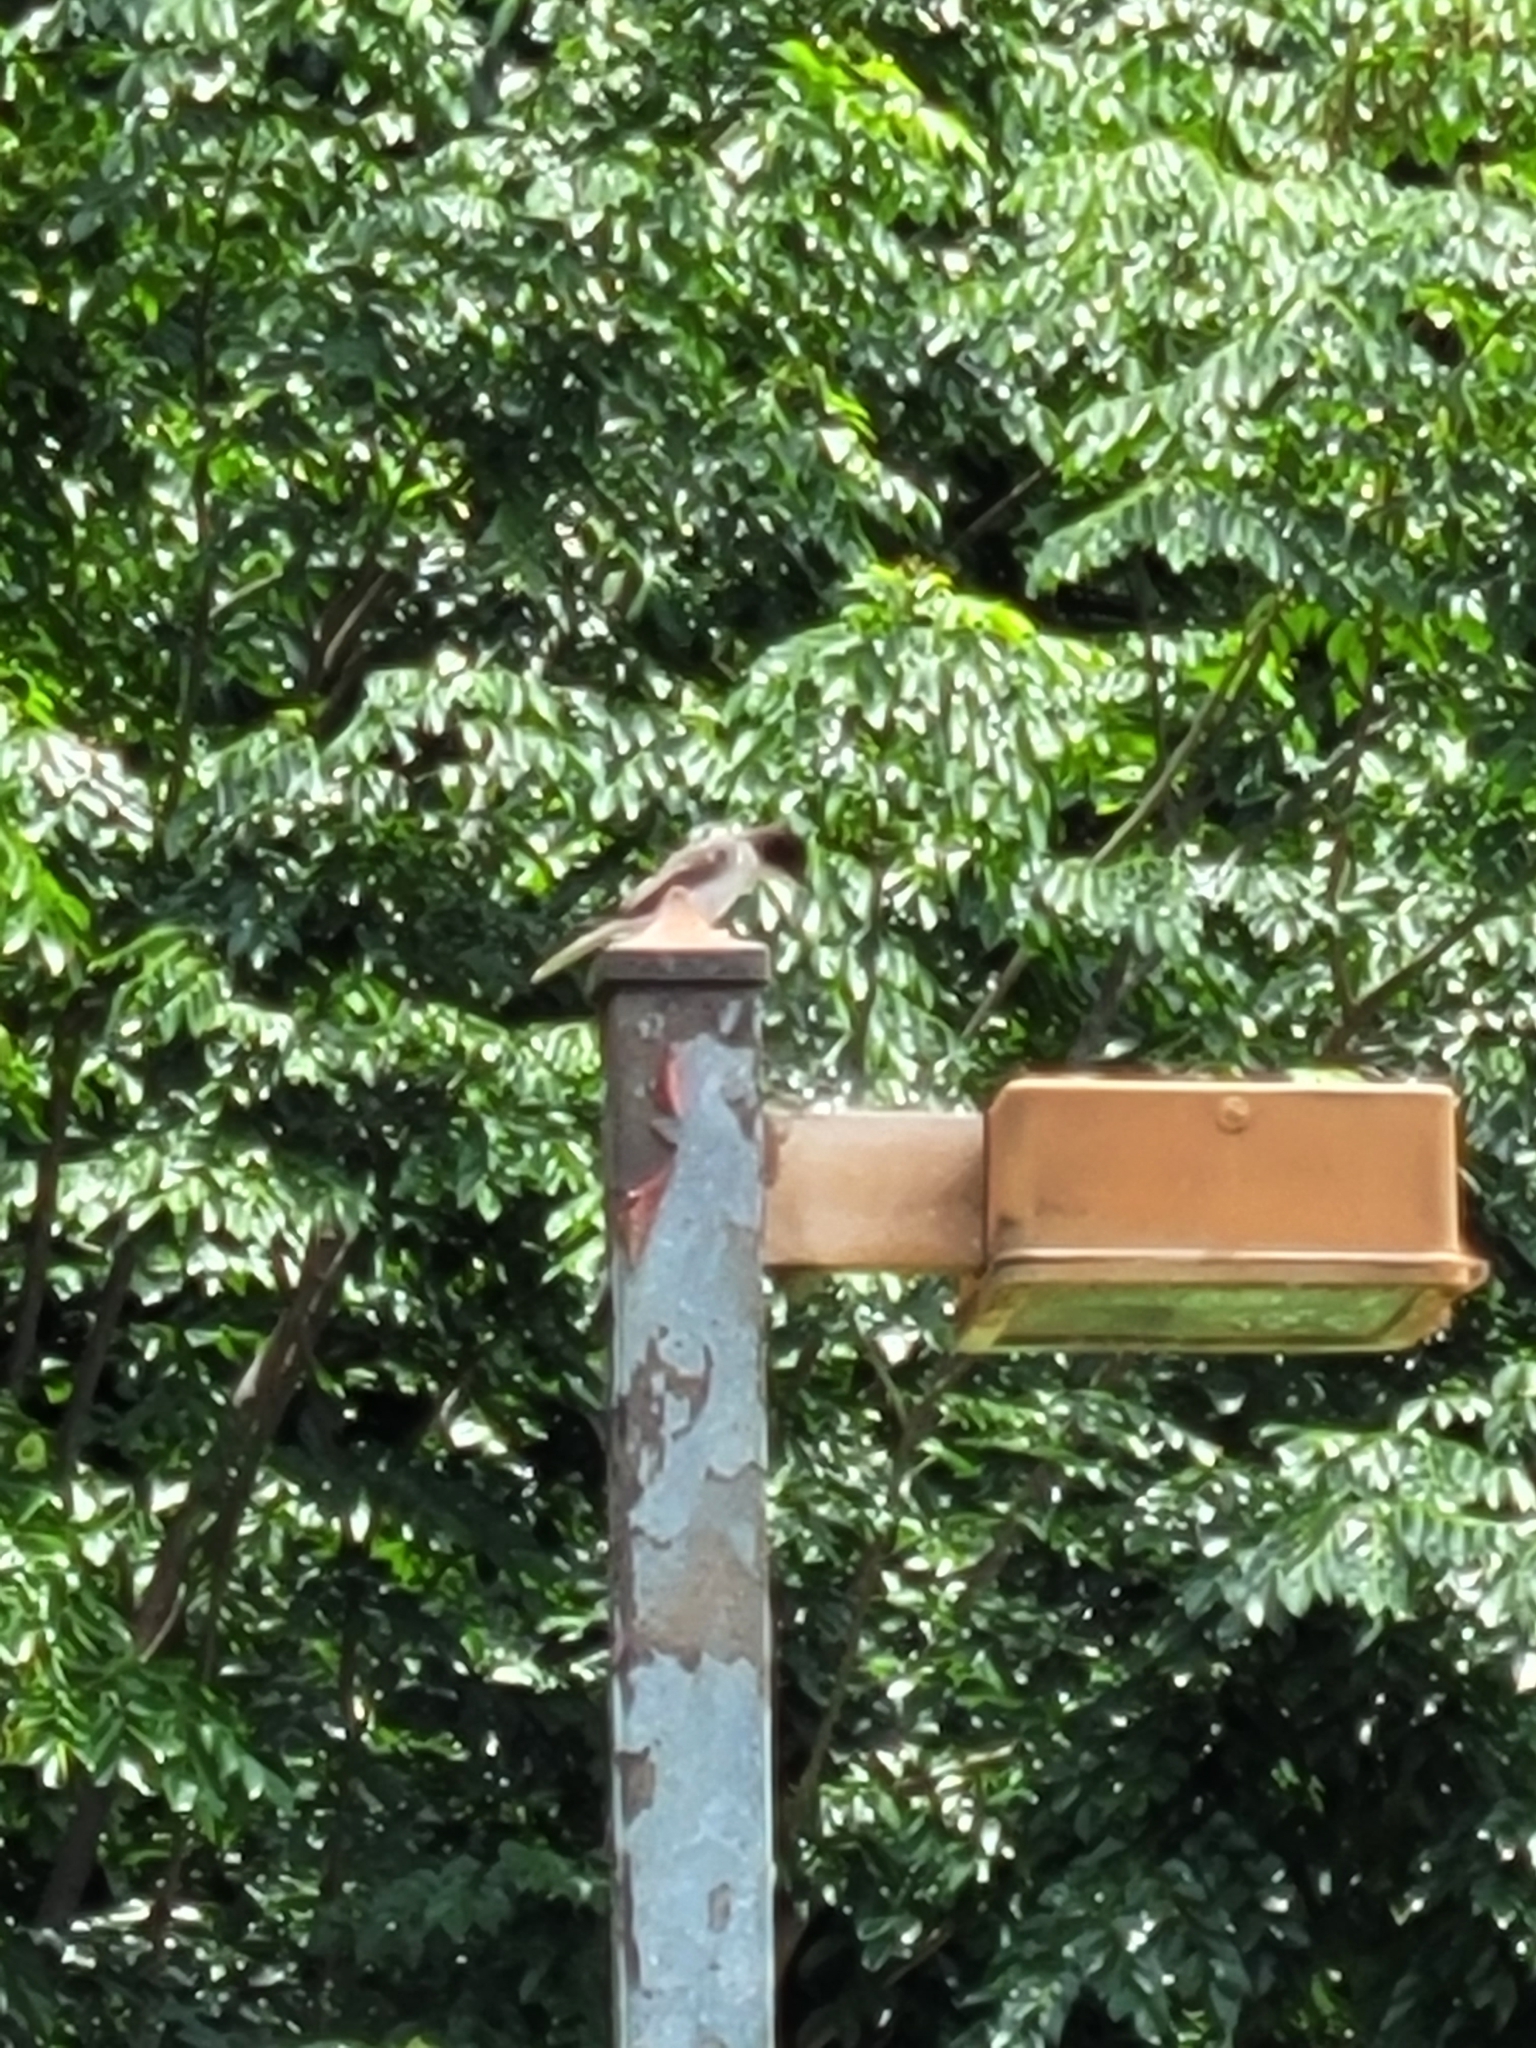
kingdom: Animalia
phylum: Chordata
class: Aves
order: Passeriformes
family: Tyrannidae
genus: Tyrannus
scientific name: Tyrannus caudifasciatus
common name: Loggerhead kingbird
